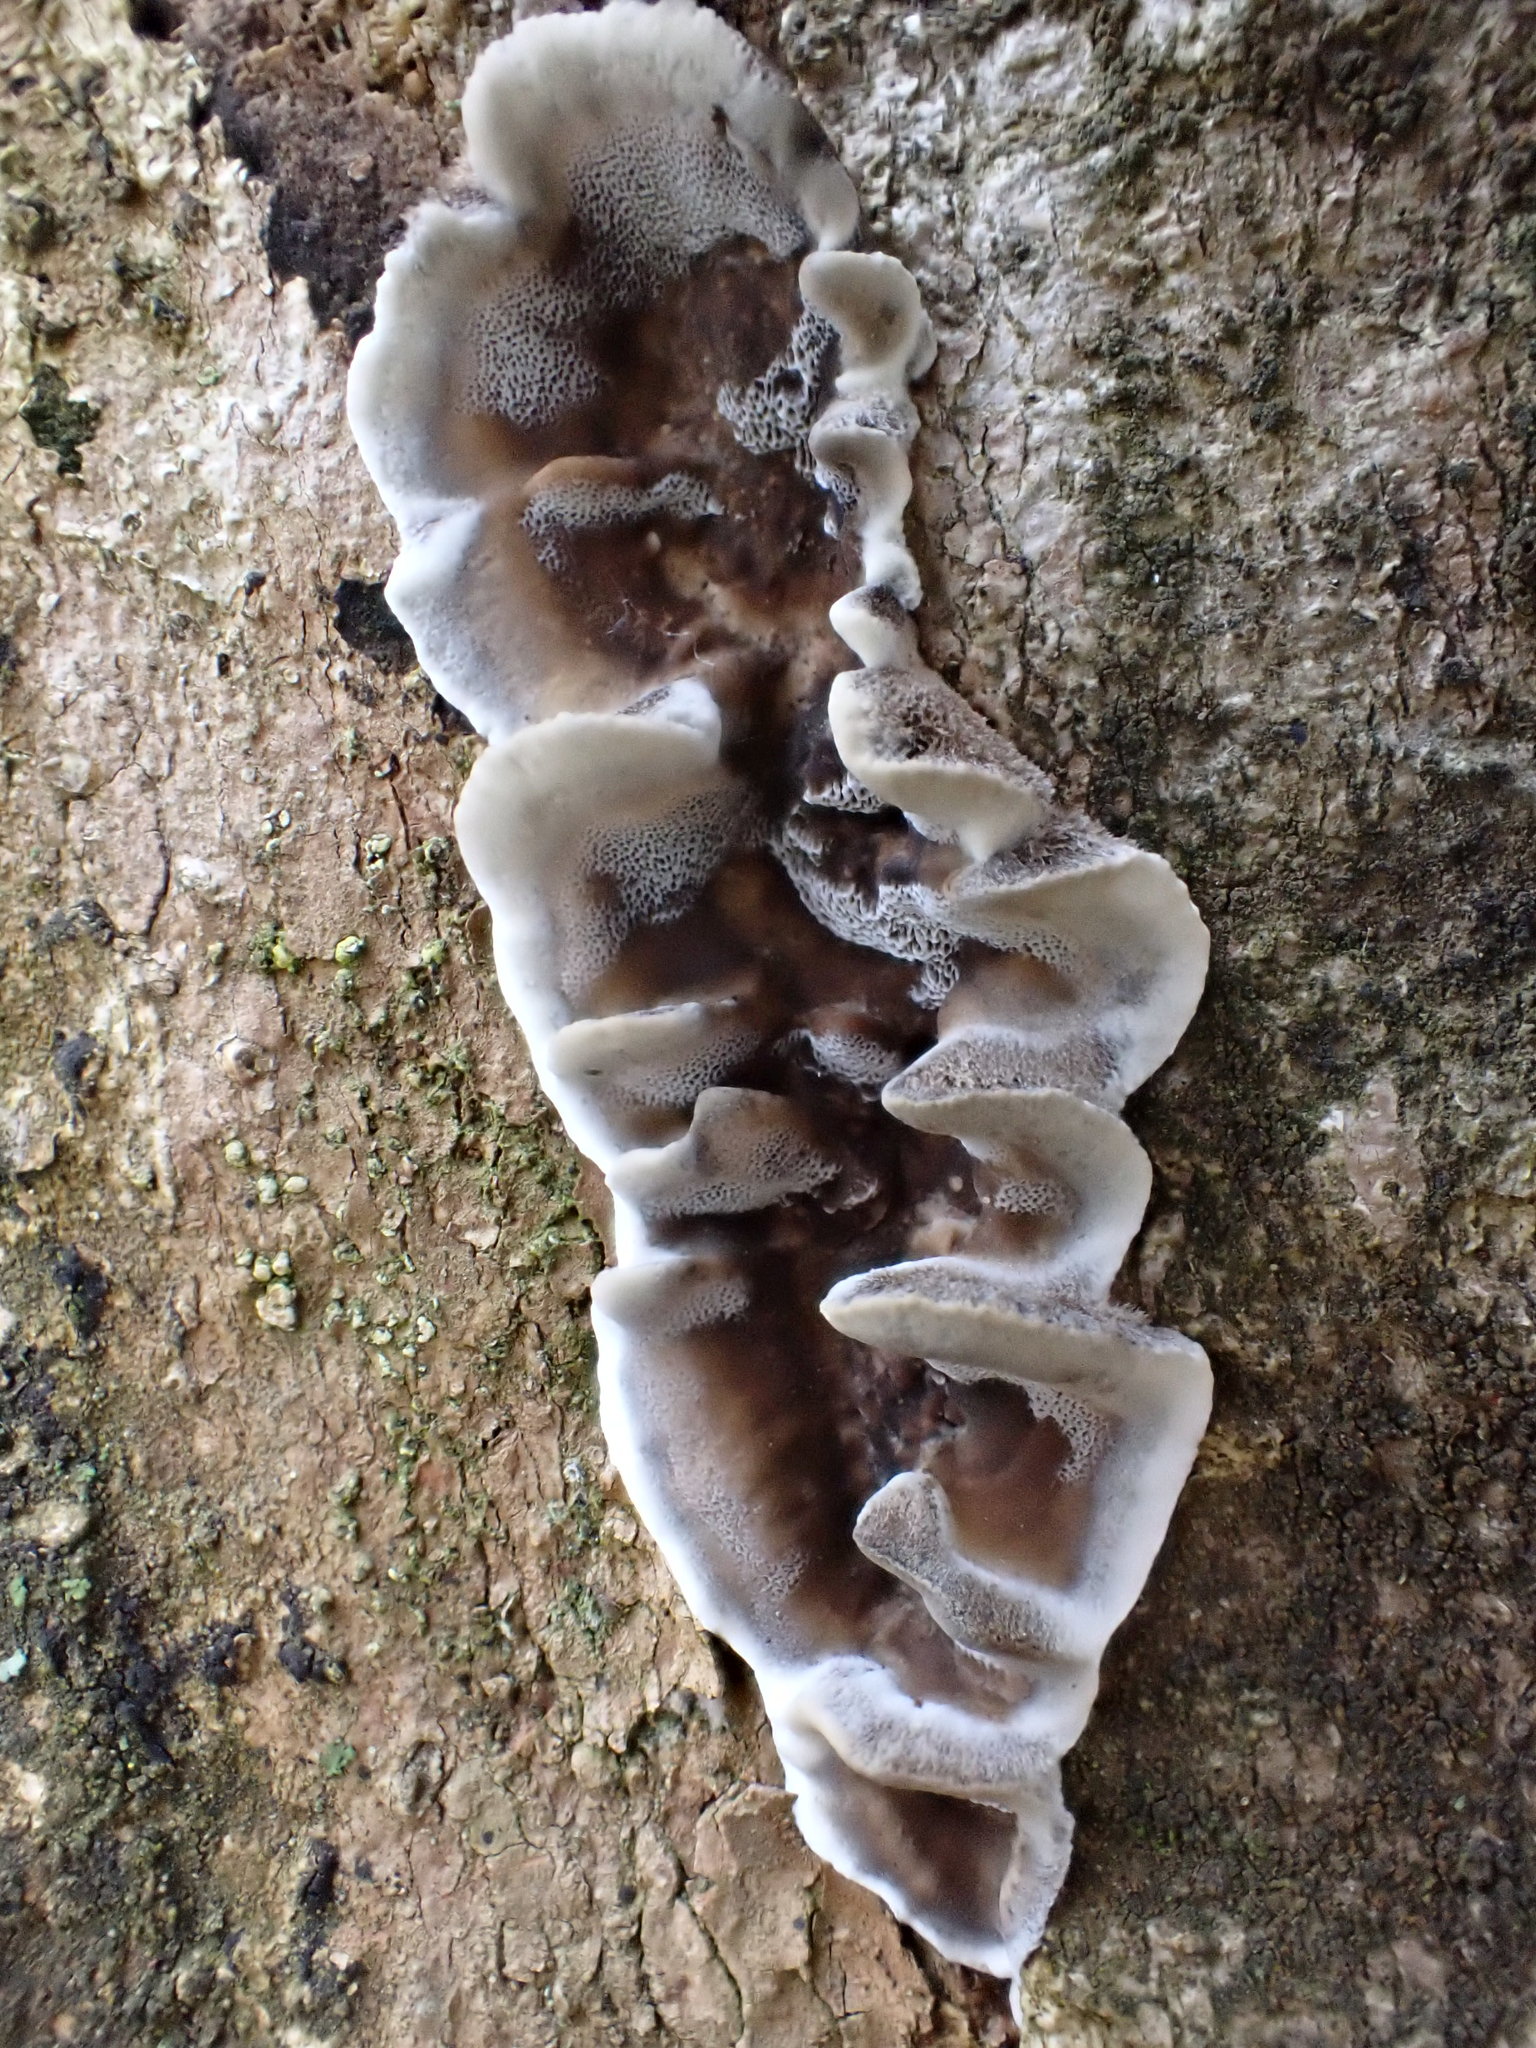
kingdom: Fungi
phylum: Basidiomycota
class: Agaricomycetes
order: Polyporales
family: Phanerochaetaceae
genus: Bjerkandera
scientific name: Bjerkandera adusta
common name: Smoky bracket
